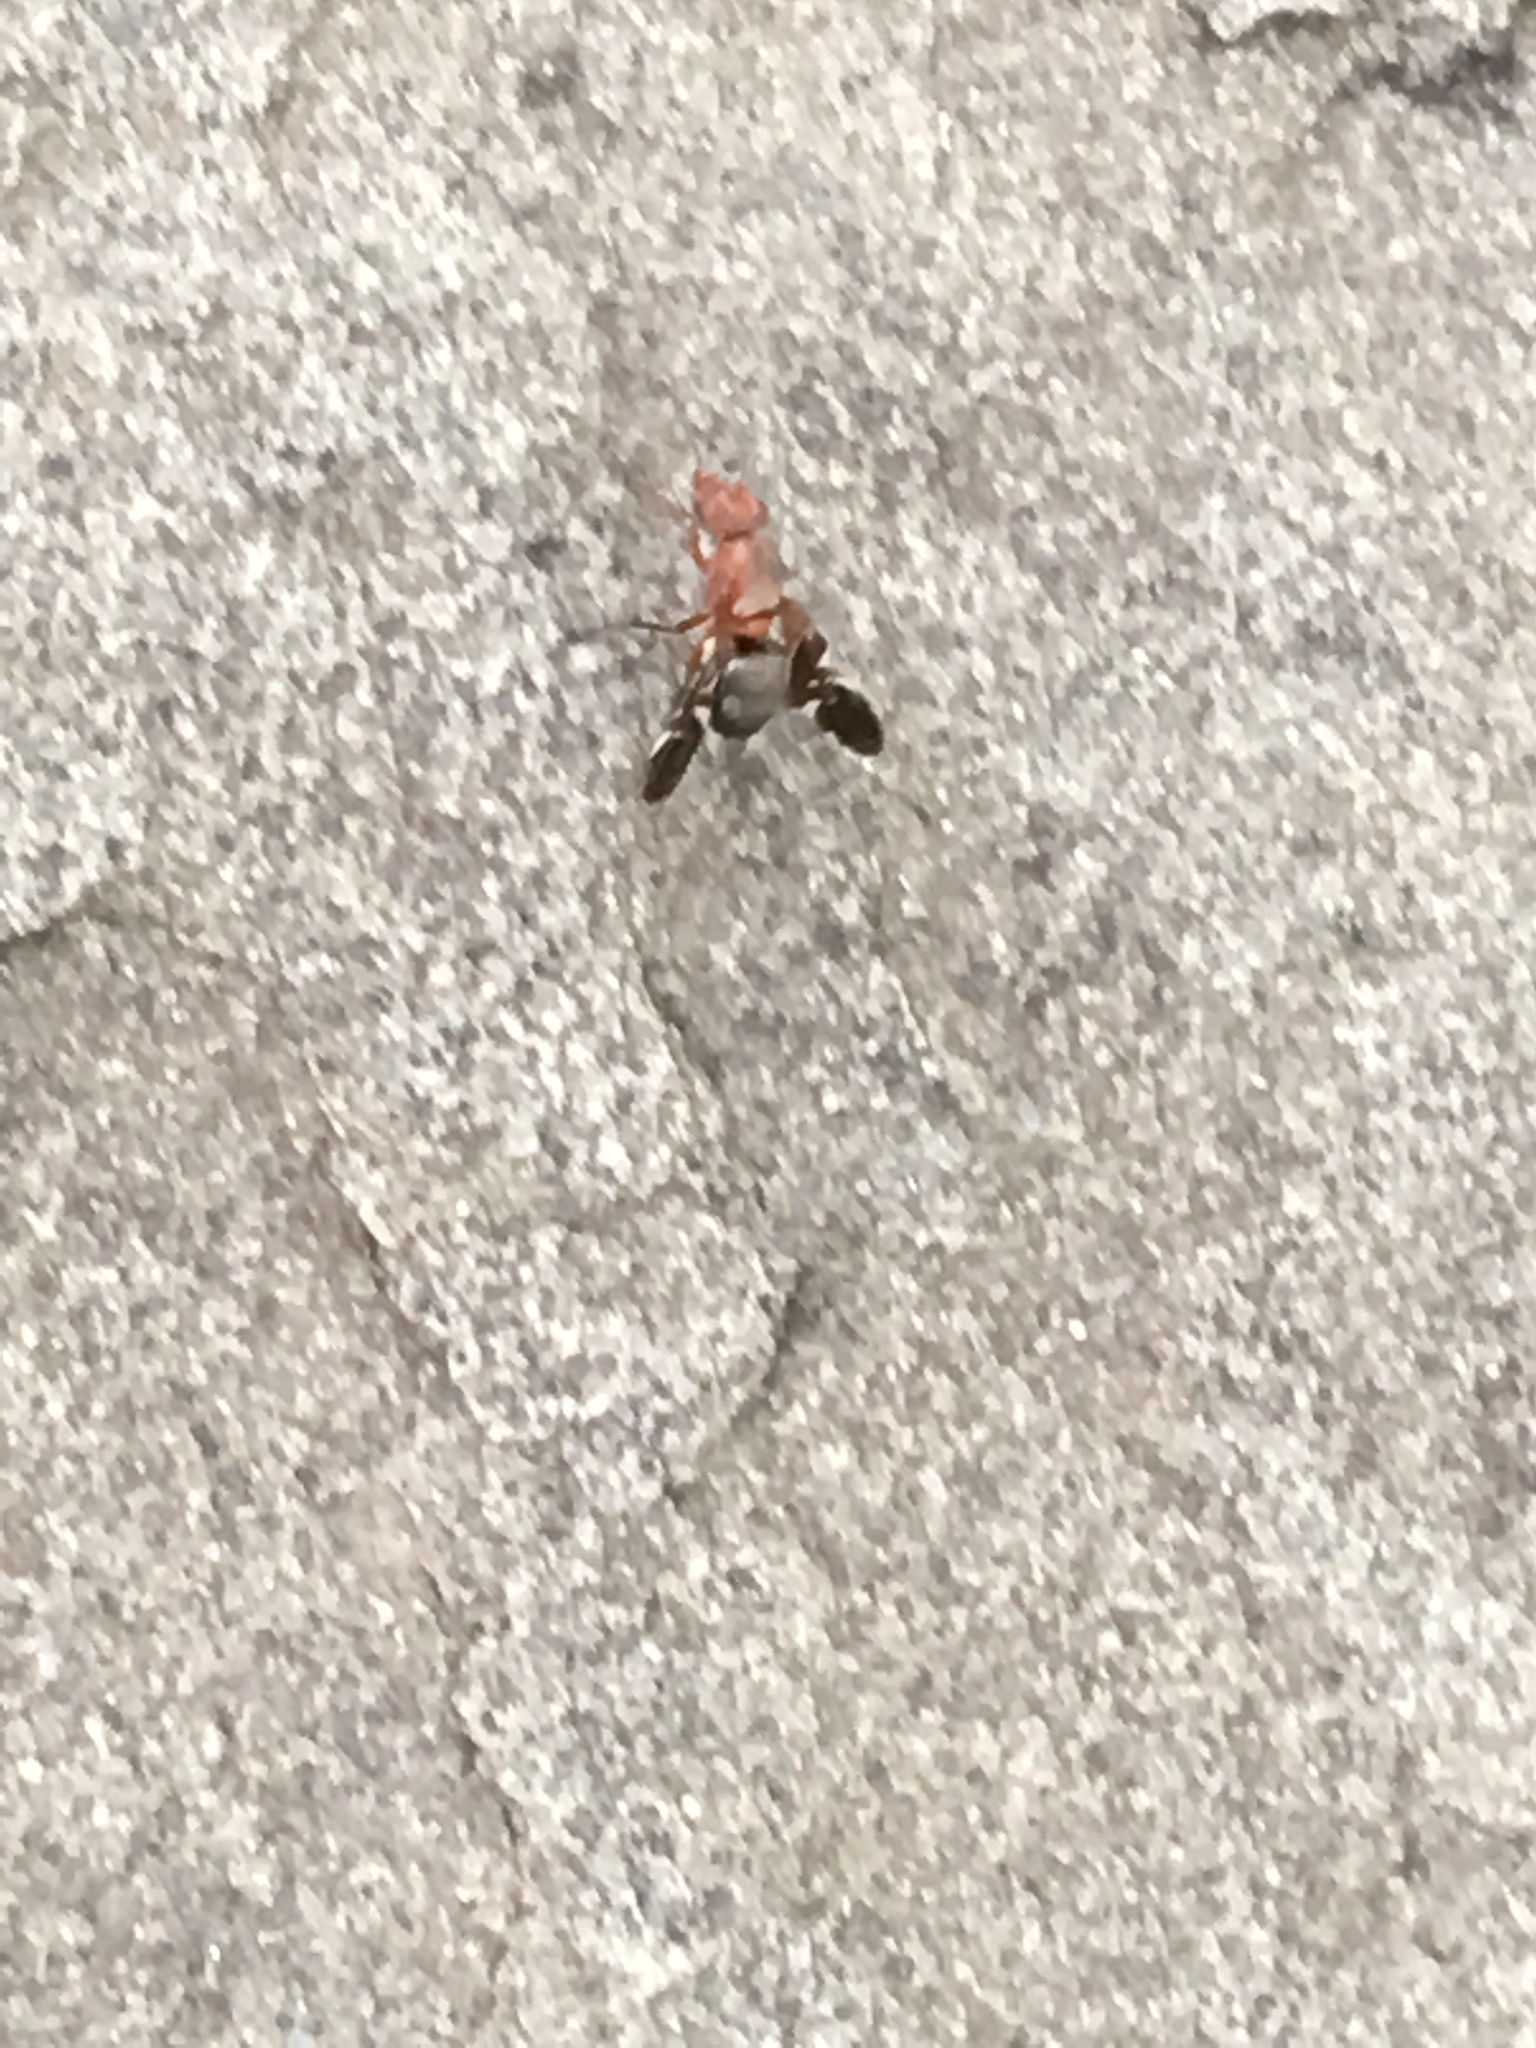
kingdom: Animalia
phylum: Arthropoda
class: Insecta
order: Diptera
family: Ulidiidae
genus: Delphinia
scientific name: Delphinia picta
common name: Common picture-winged fly
